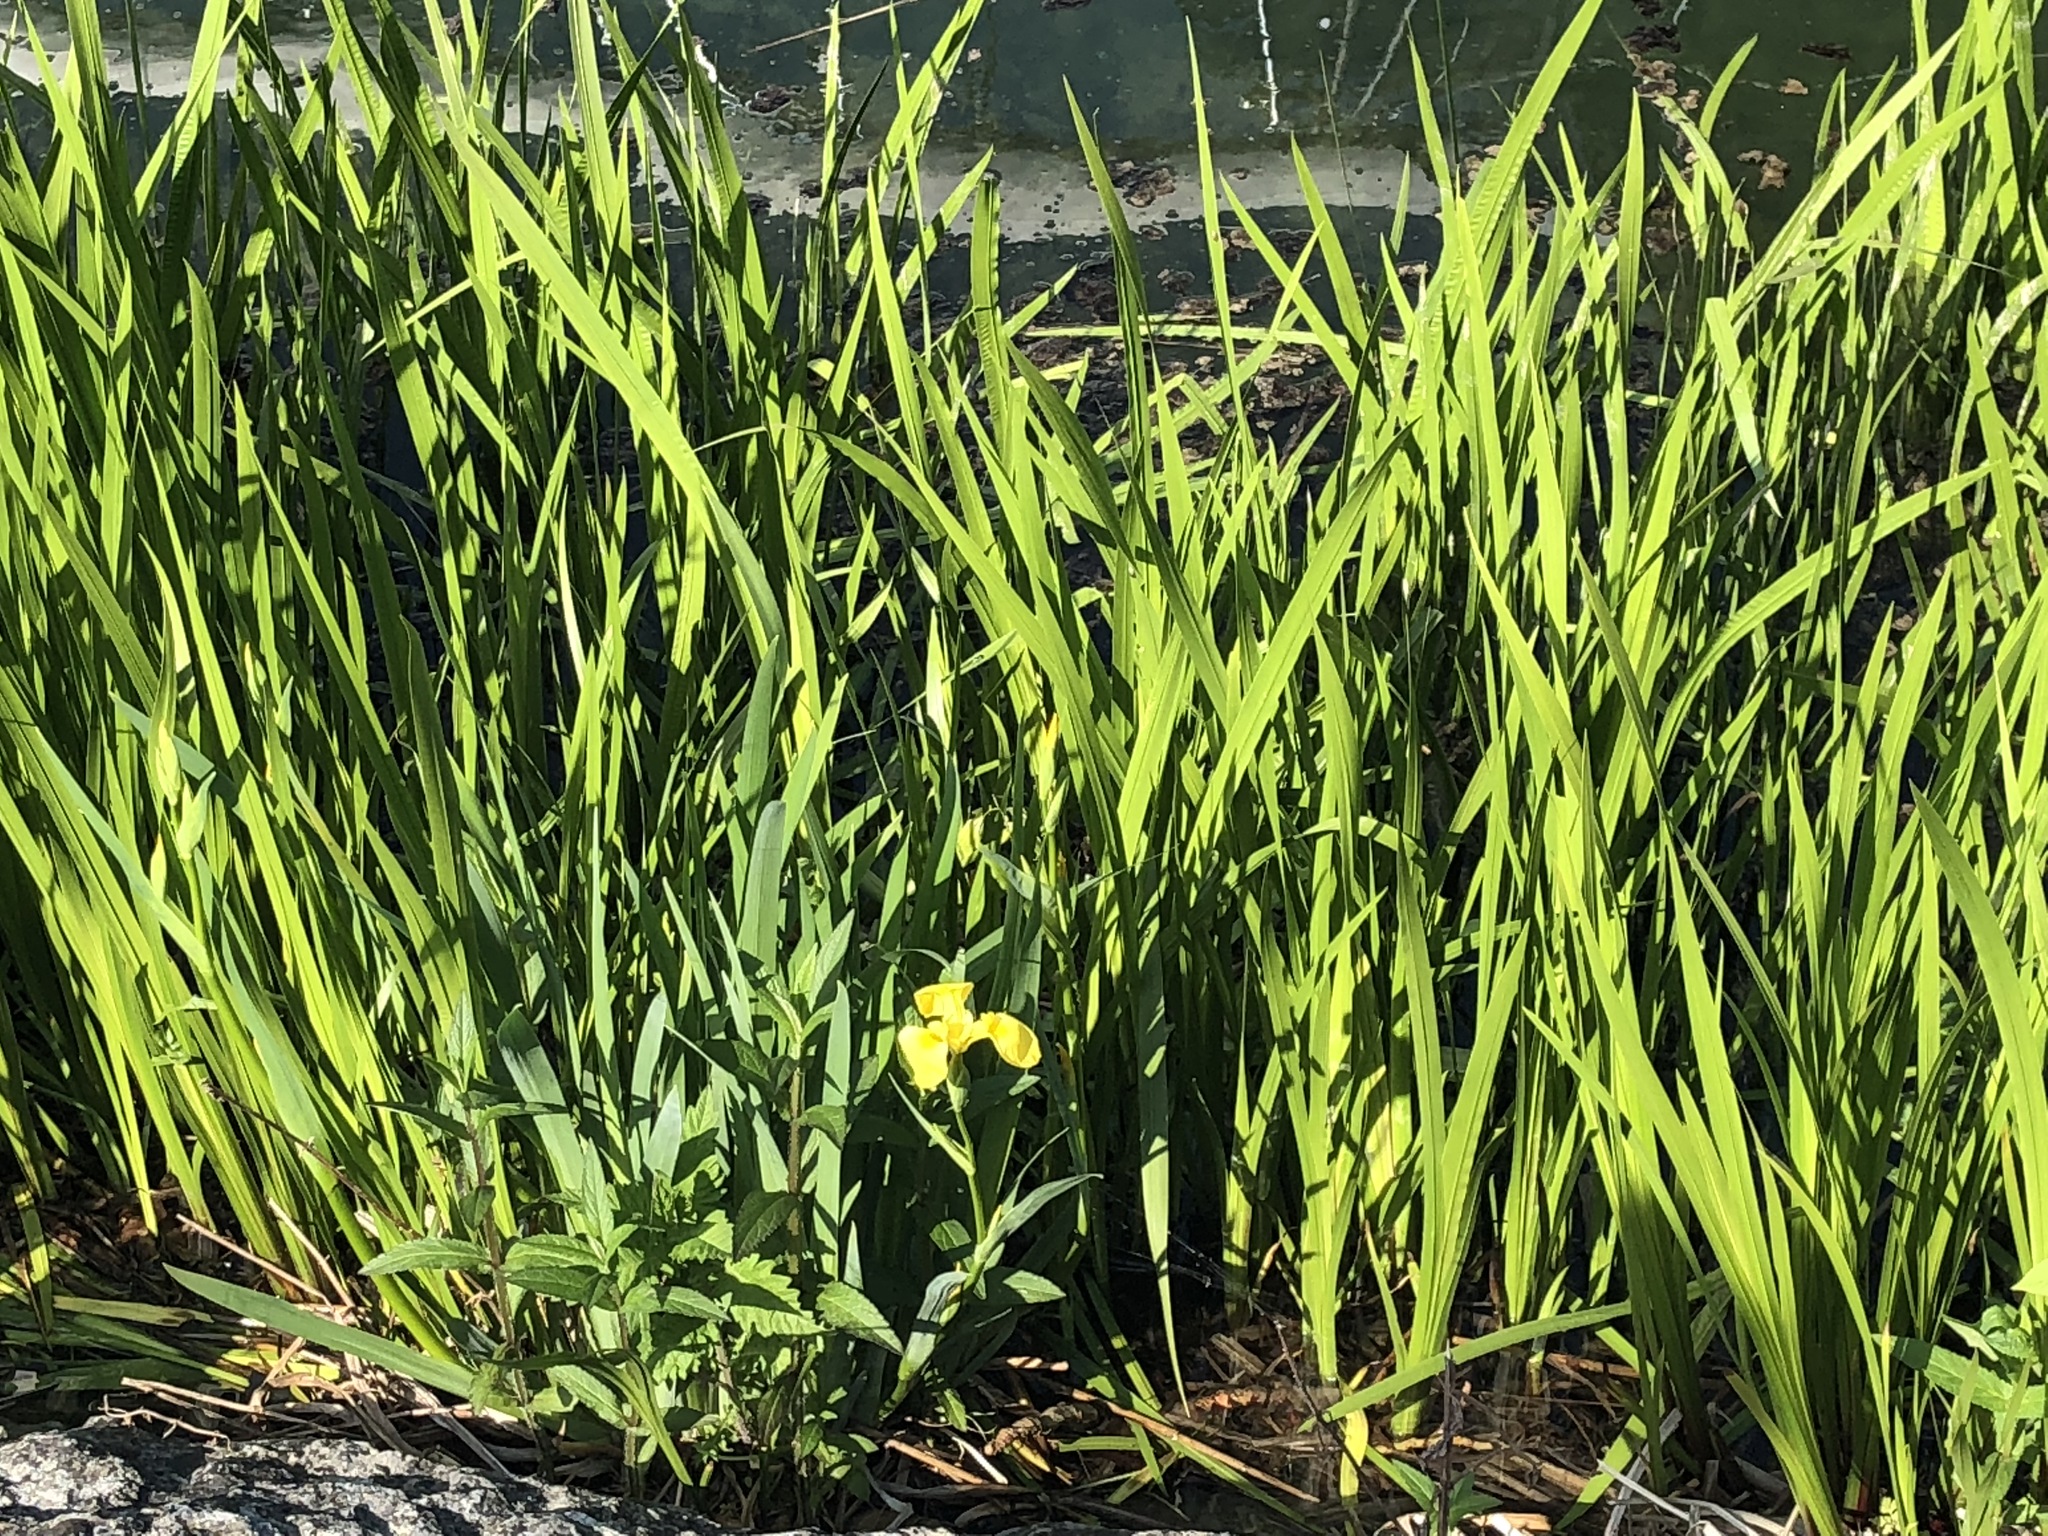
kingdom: Plantae
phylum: Tracheophyta
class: Liliopsida
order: Acorales
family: Acoraceae
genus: Acorus
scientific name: Acorus calamus
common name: Sweet-flag
